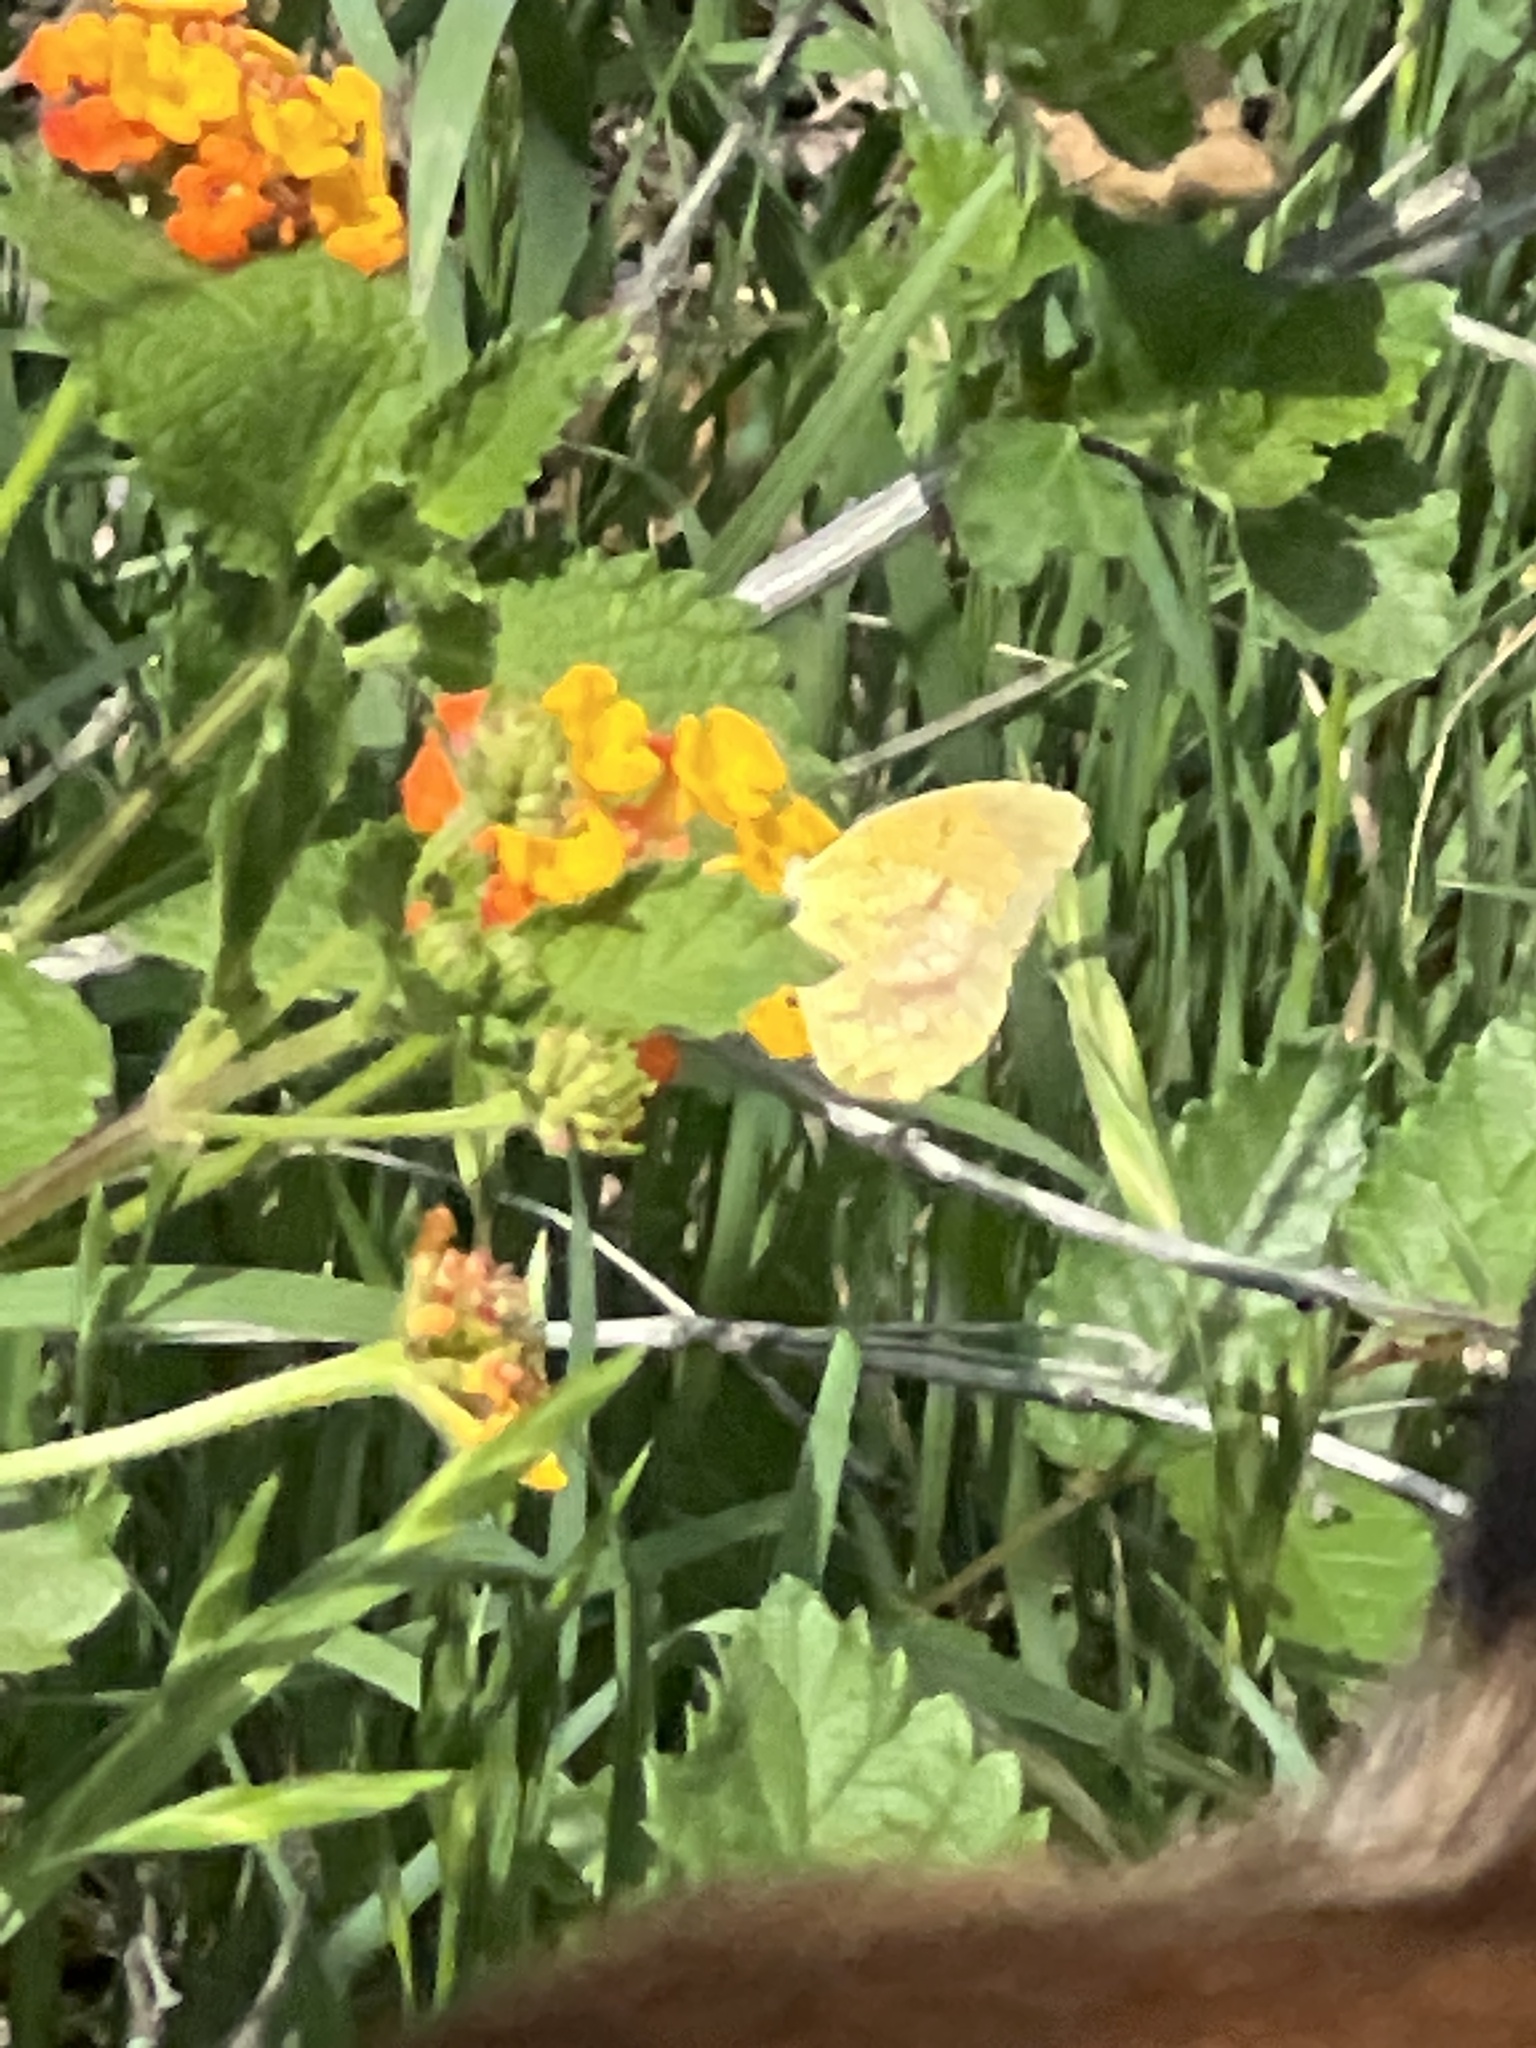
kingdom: Animalia
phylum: Arthropoda
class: Insecta
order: Lepidoptera
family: Pieridae
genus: Abaeis
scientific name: Abaeis nicippe
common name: Sleepy orange
